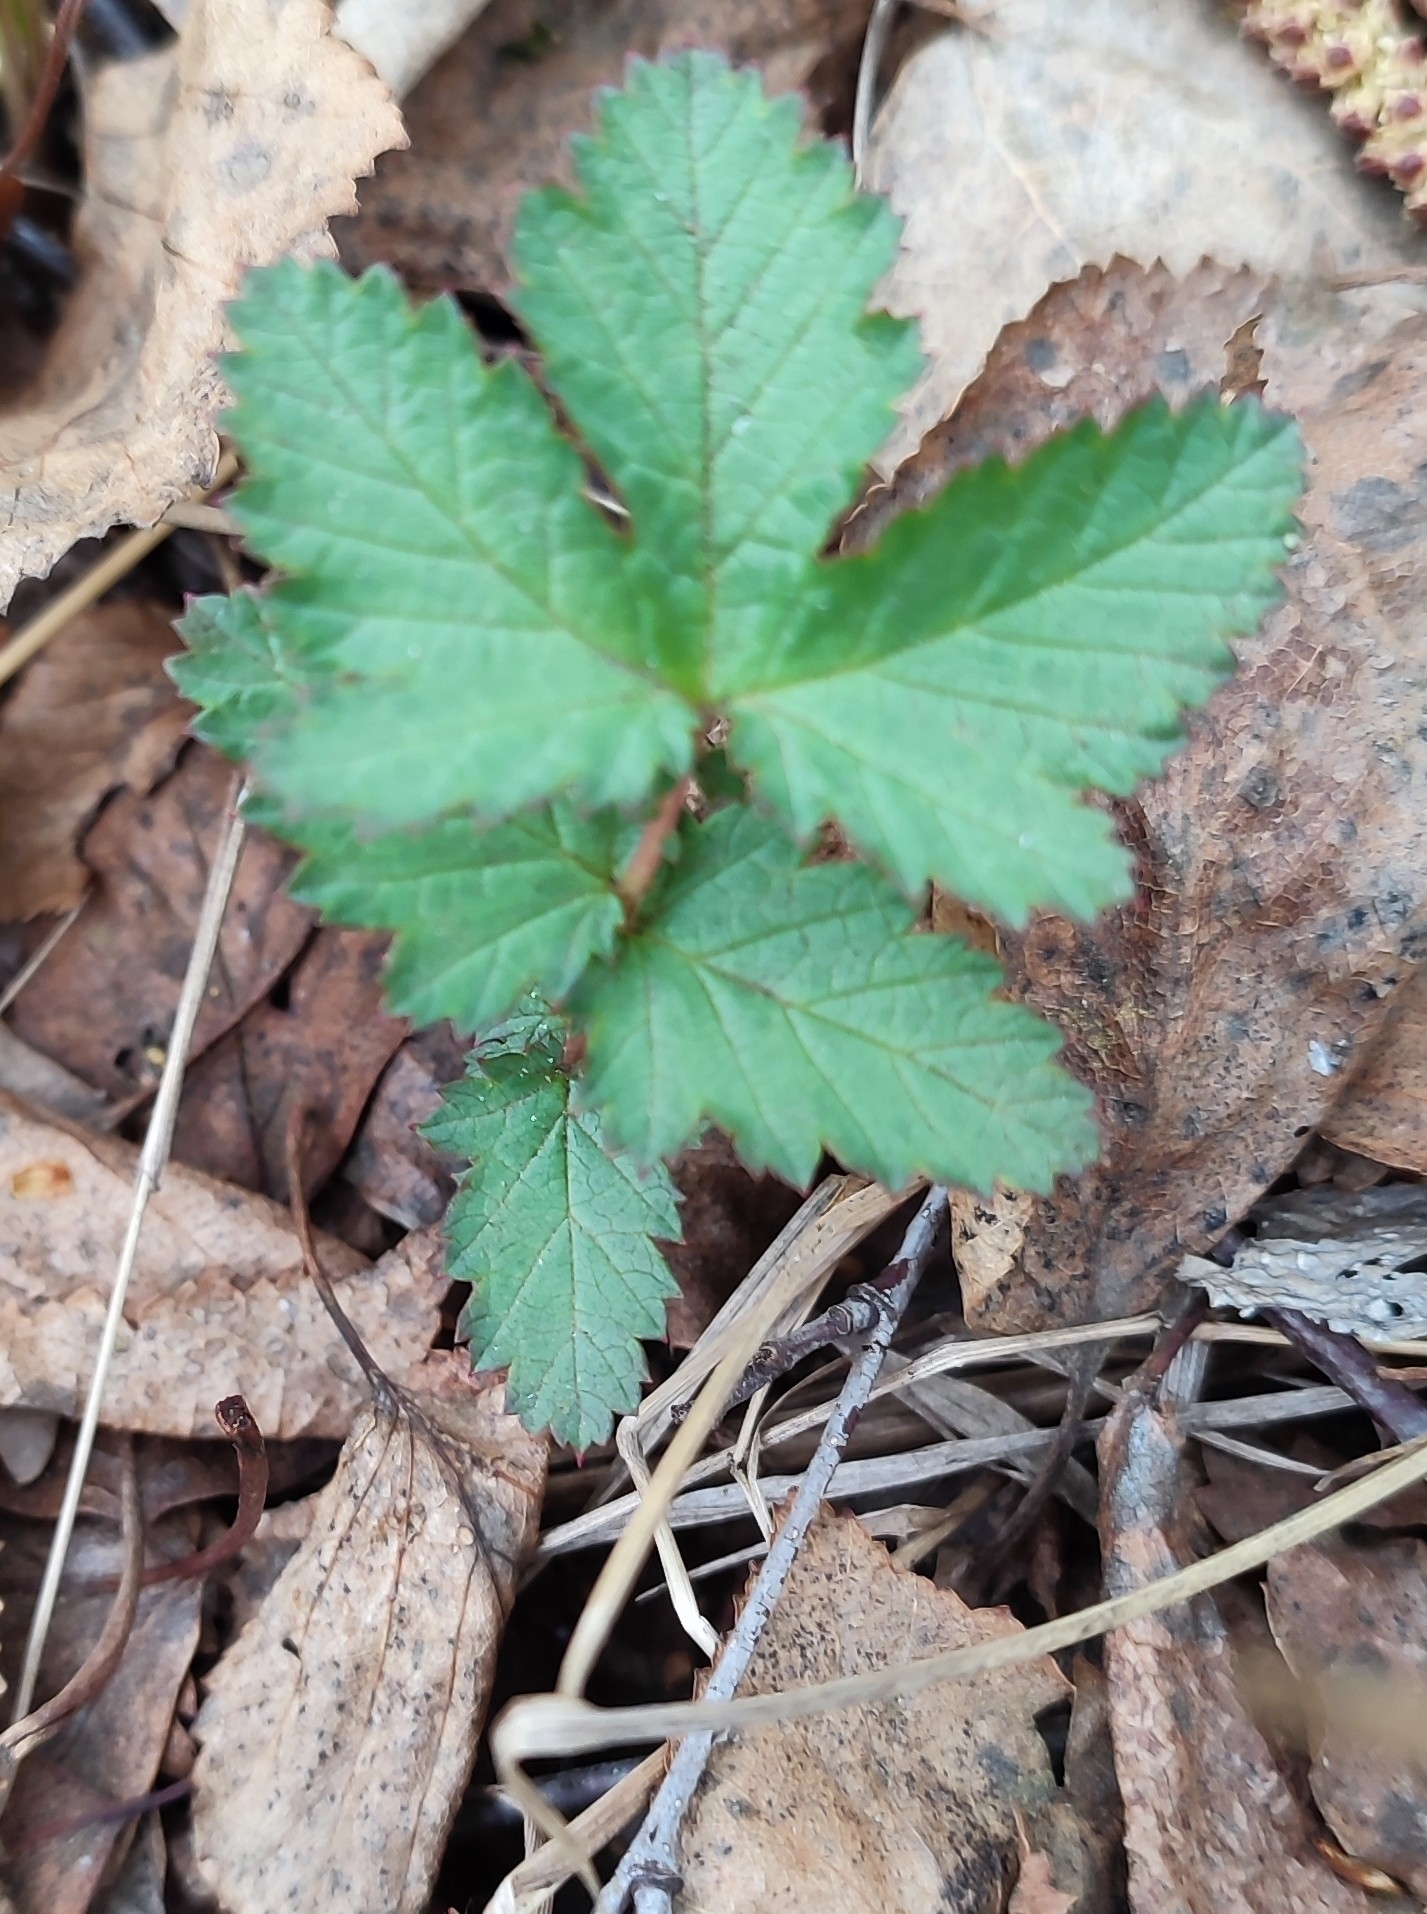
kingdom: Plantae
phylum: Tracheophyta
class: Magnoliopsida
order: Rosales
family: Rosaceae
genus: Filipendula
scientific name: Filipendula ulmaria
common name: Meadowsweet
